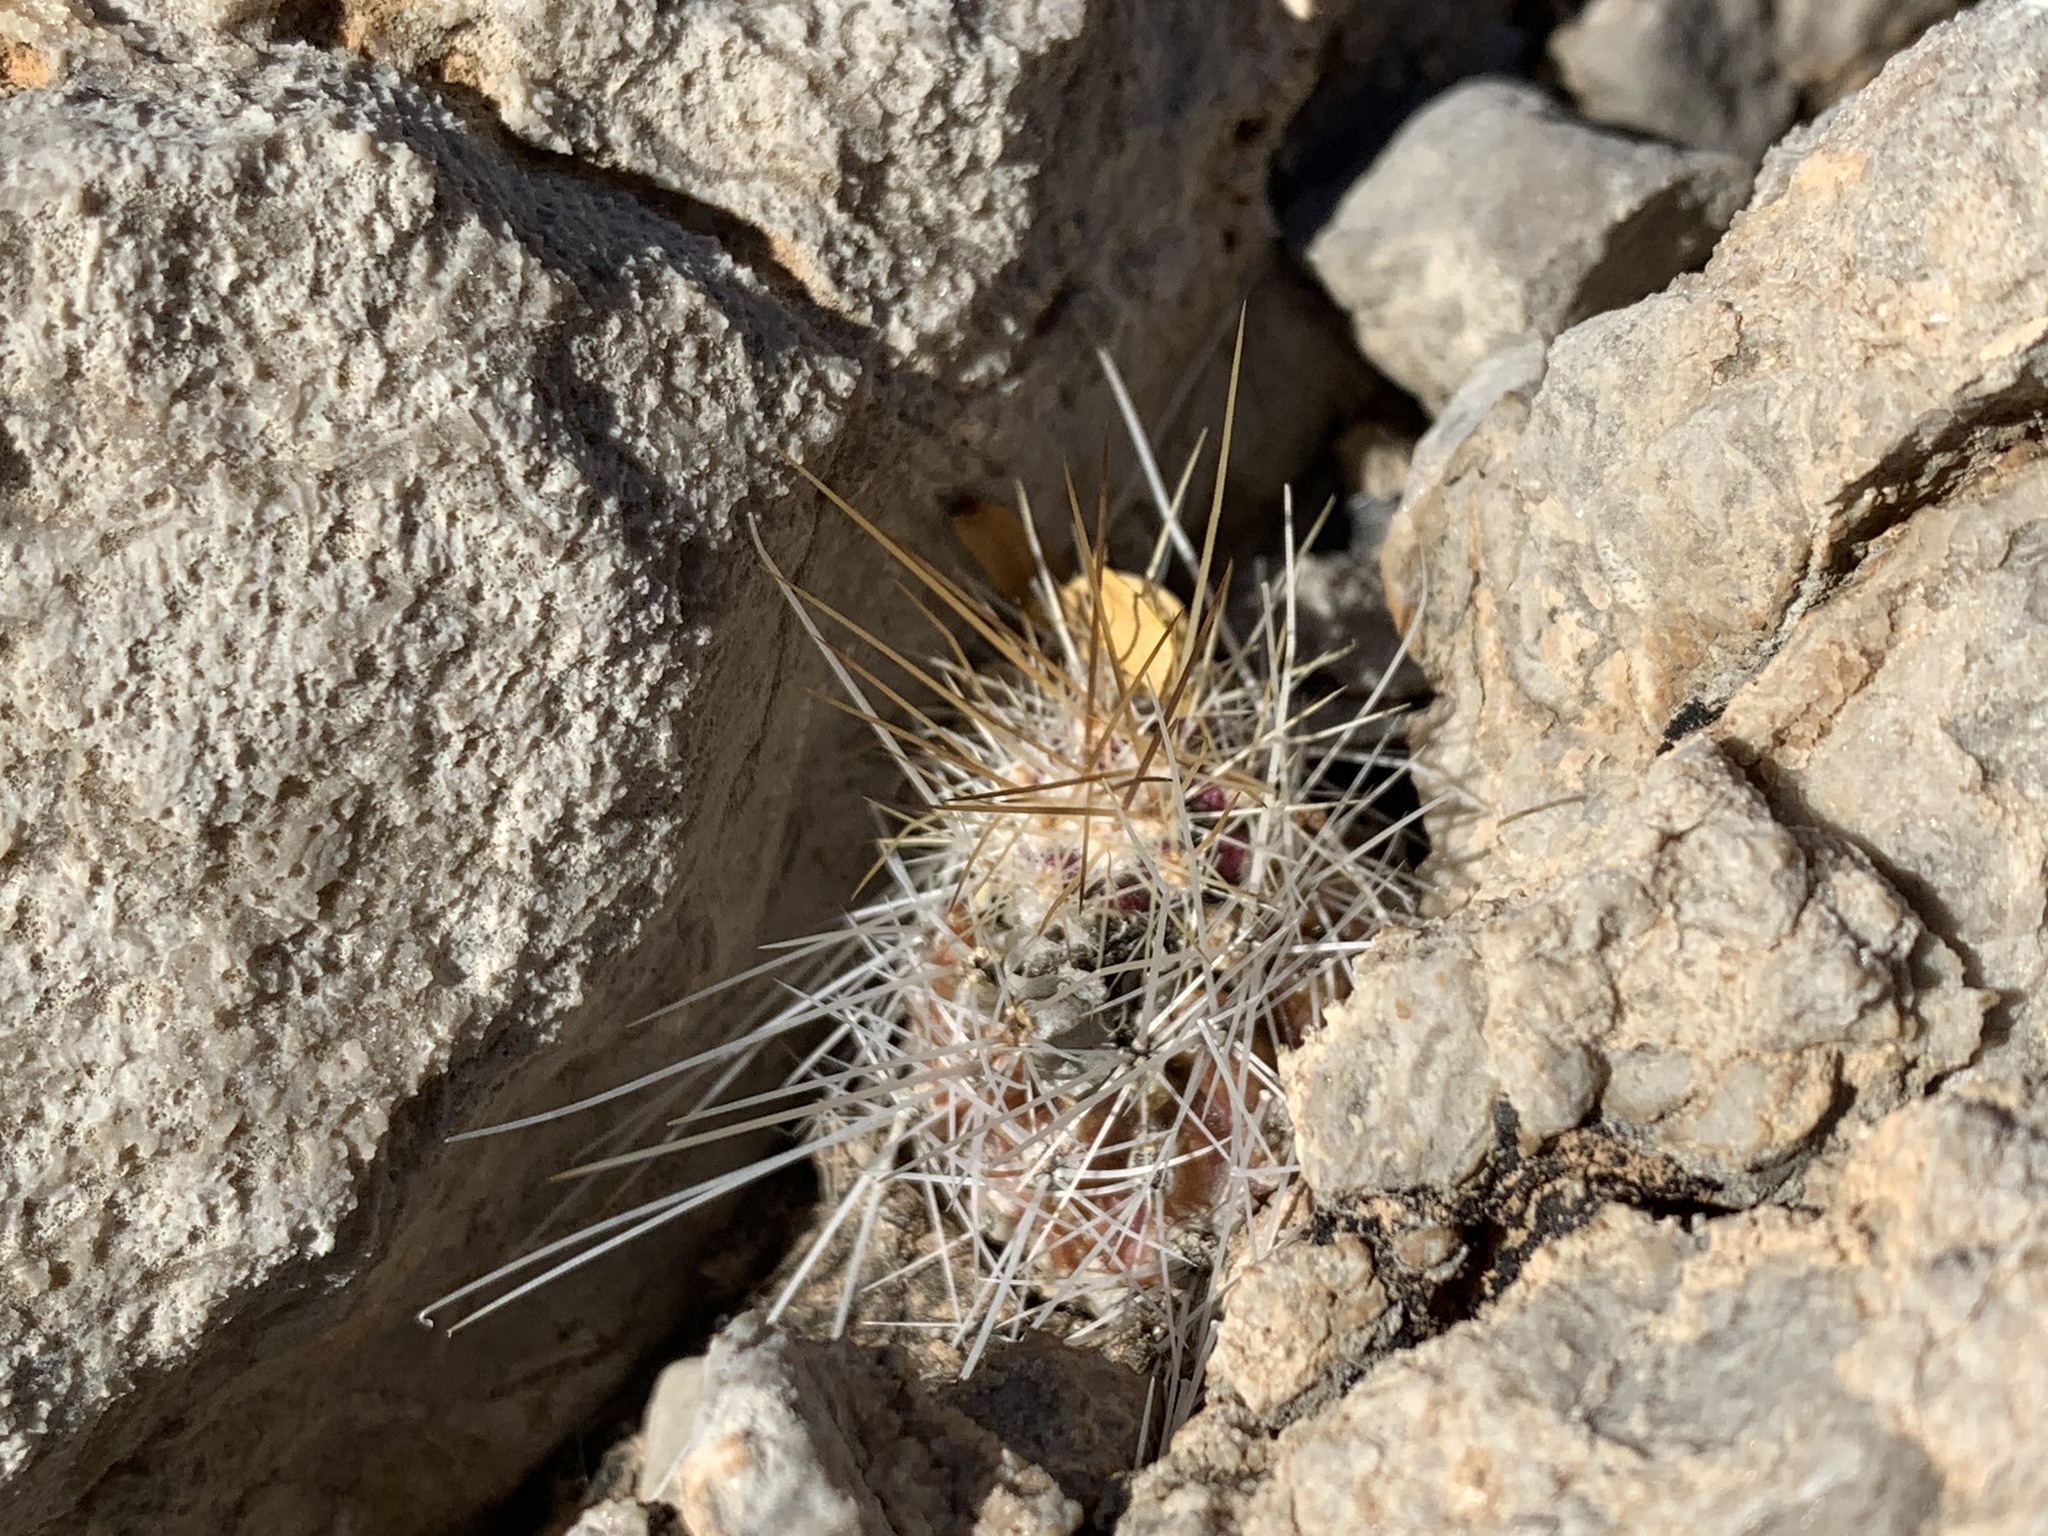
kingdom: Plantae
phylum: Tracheophyta
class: Magnoliopsida
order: Caryophyllales
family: Cactaceae
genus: Echinocereus
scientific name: Echinocereus stramineus
